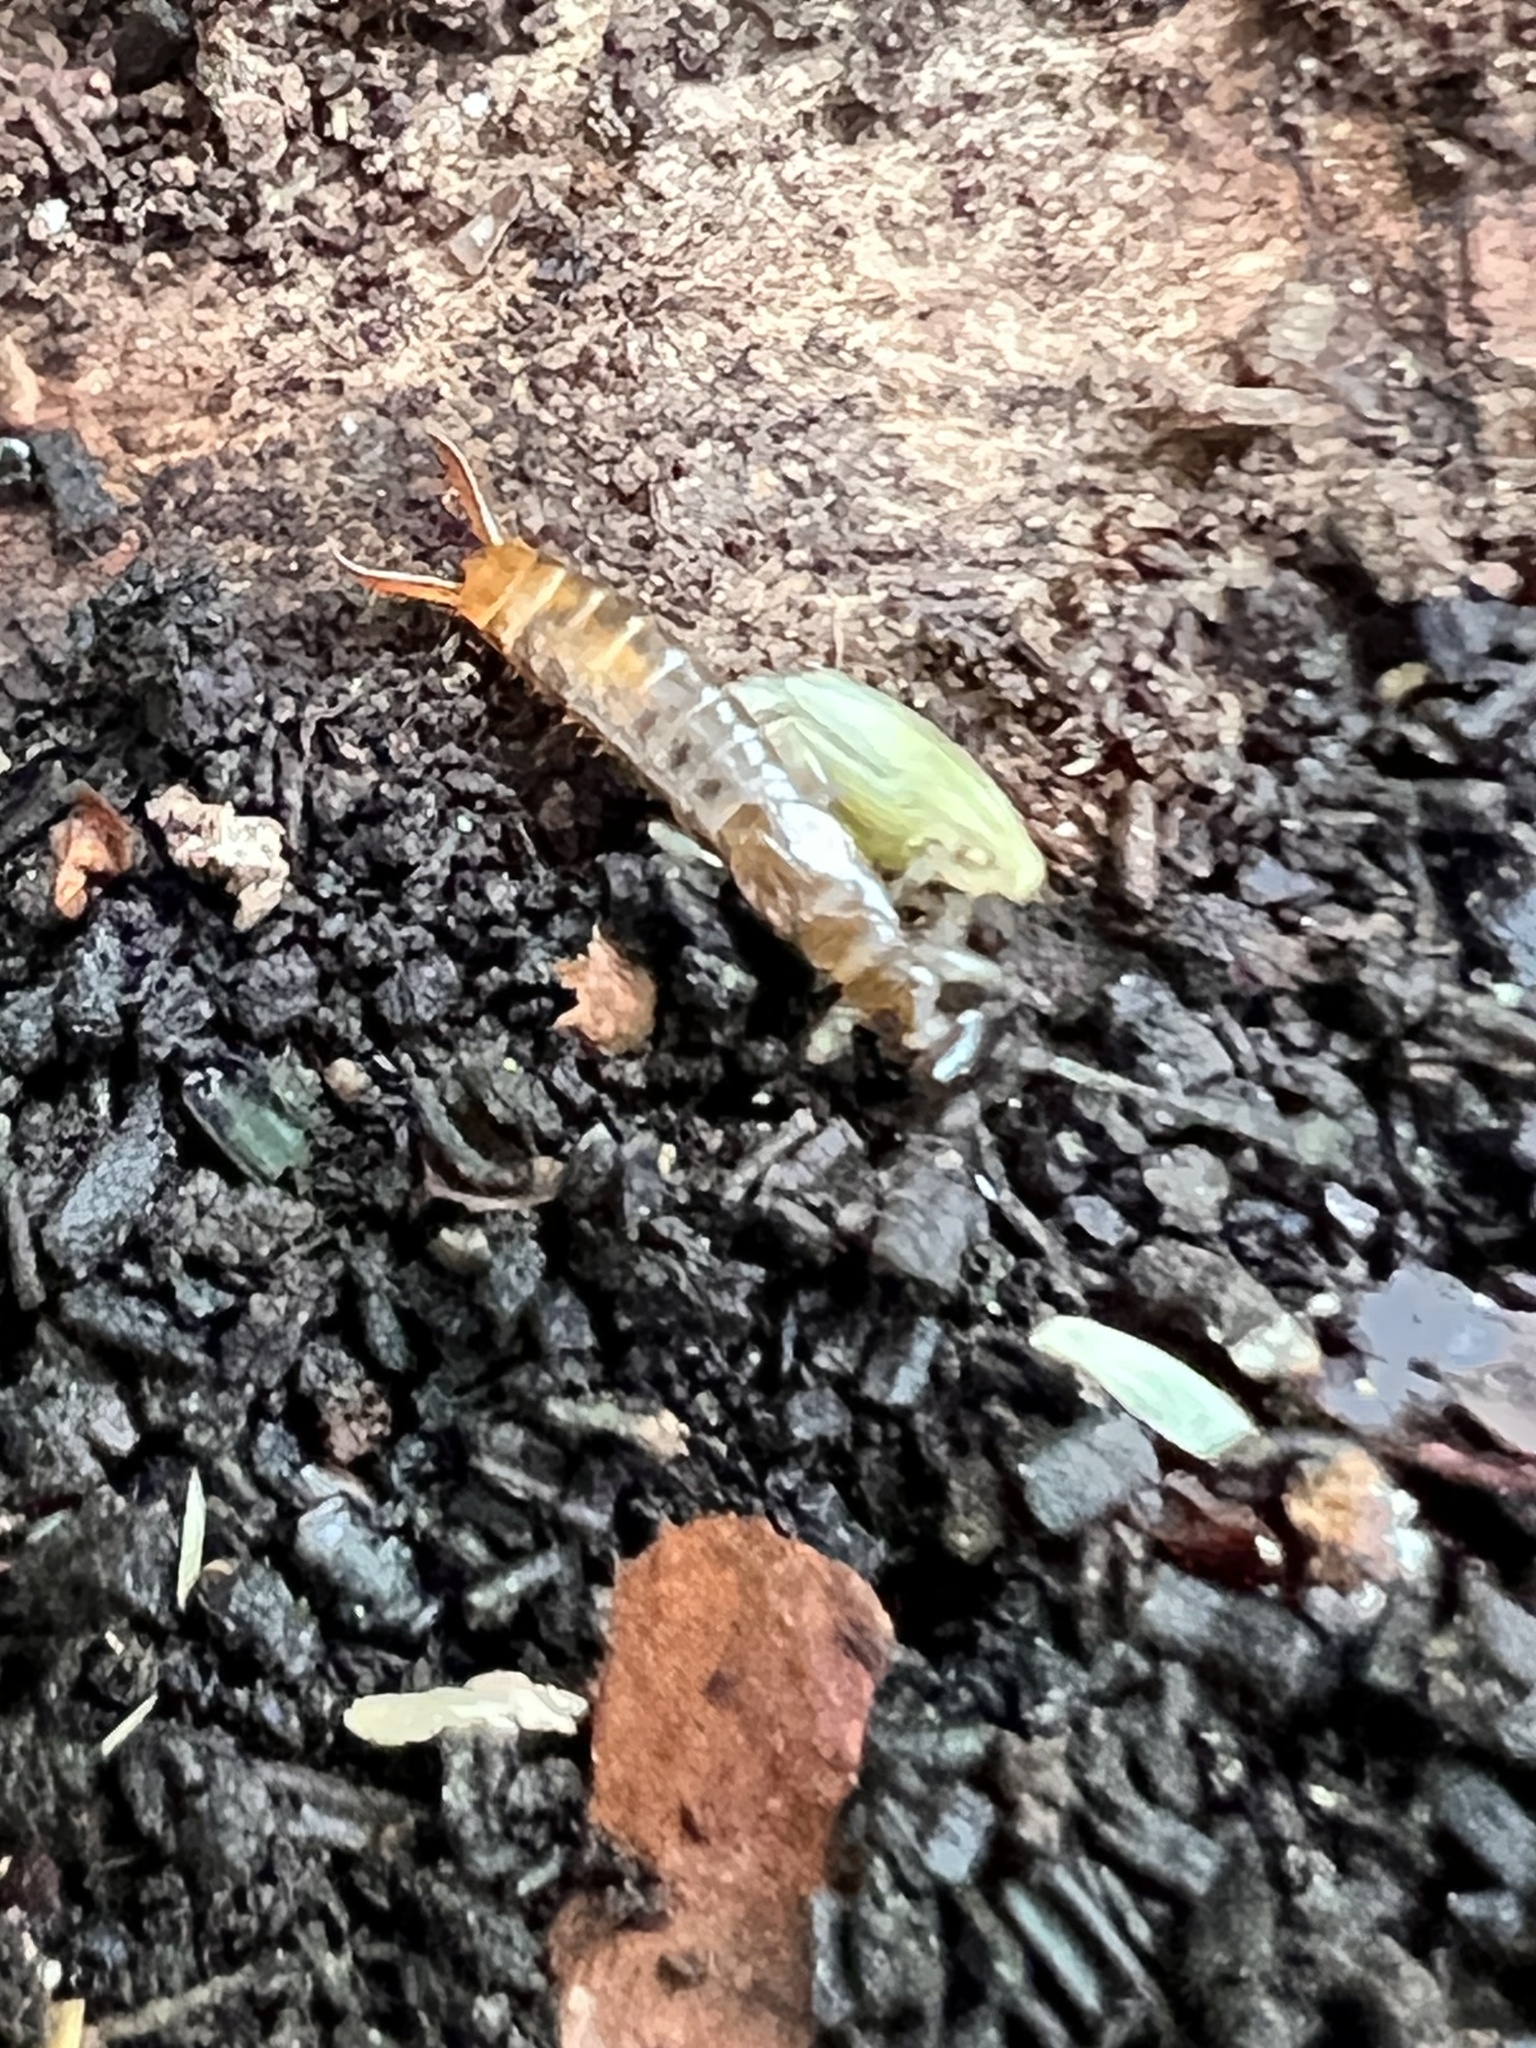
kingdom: Animalia
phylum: Arthropoda
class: Insecta
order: Dermaptera
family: Spongiphoridae
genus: Paraspania
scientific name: Paraspania brunneri
